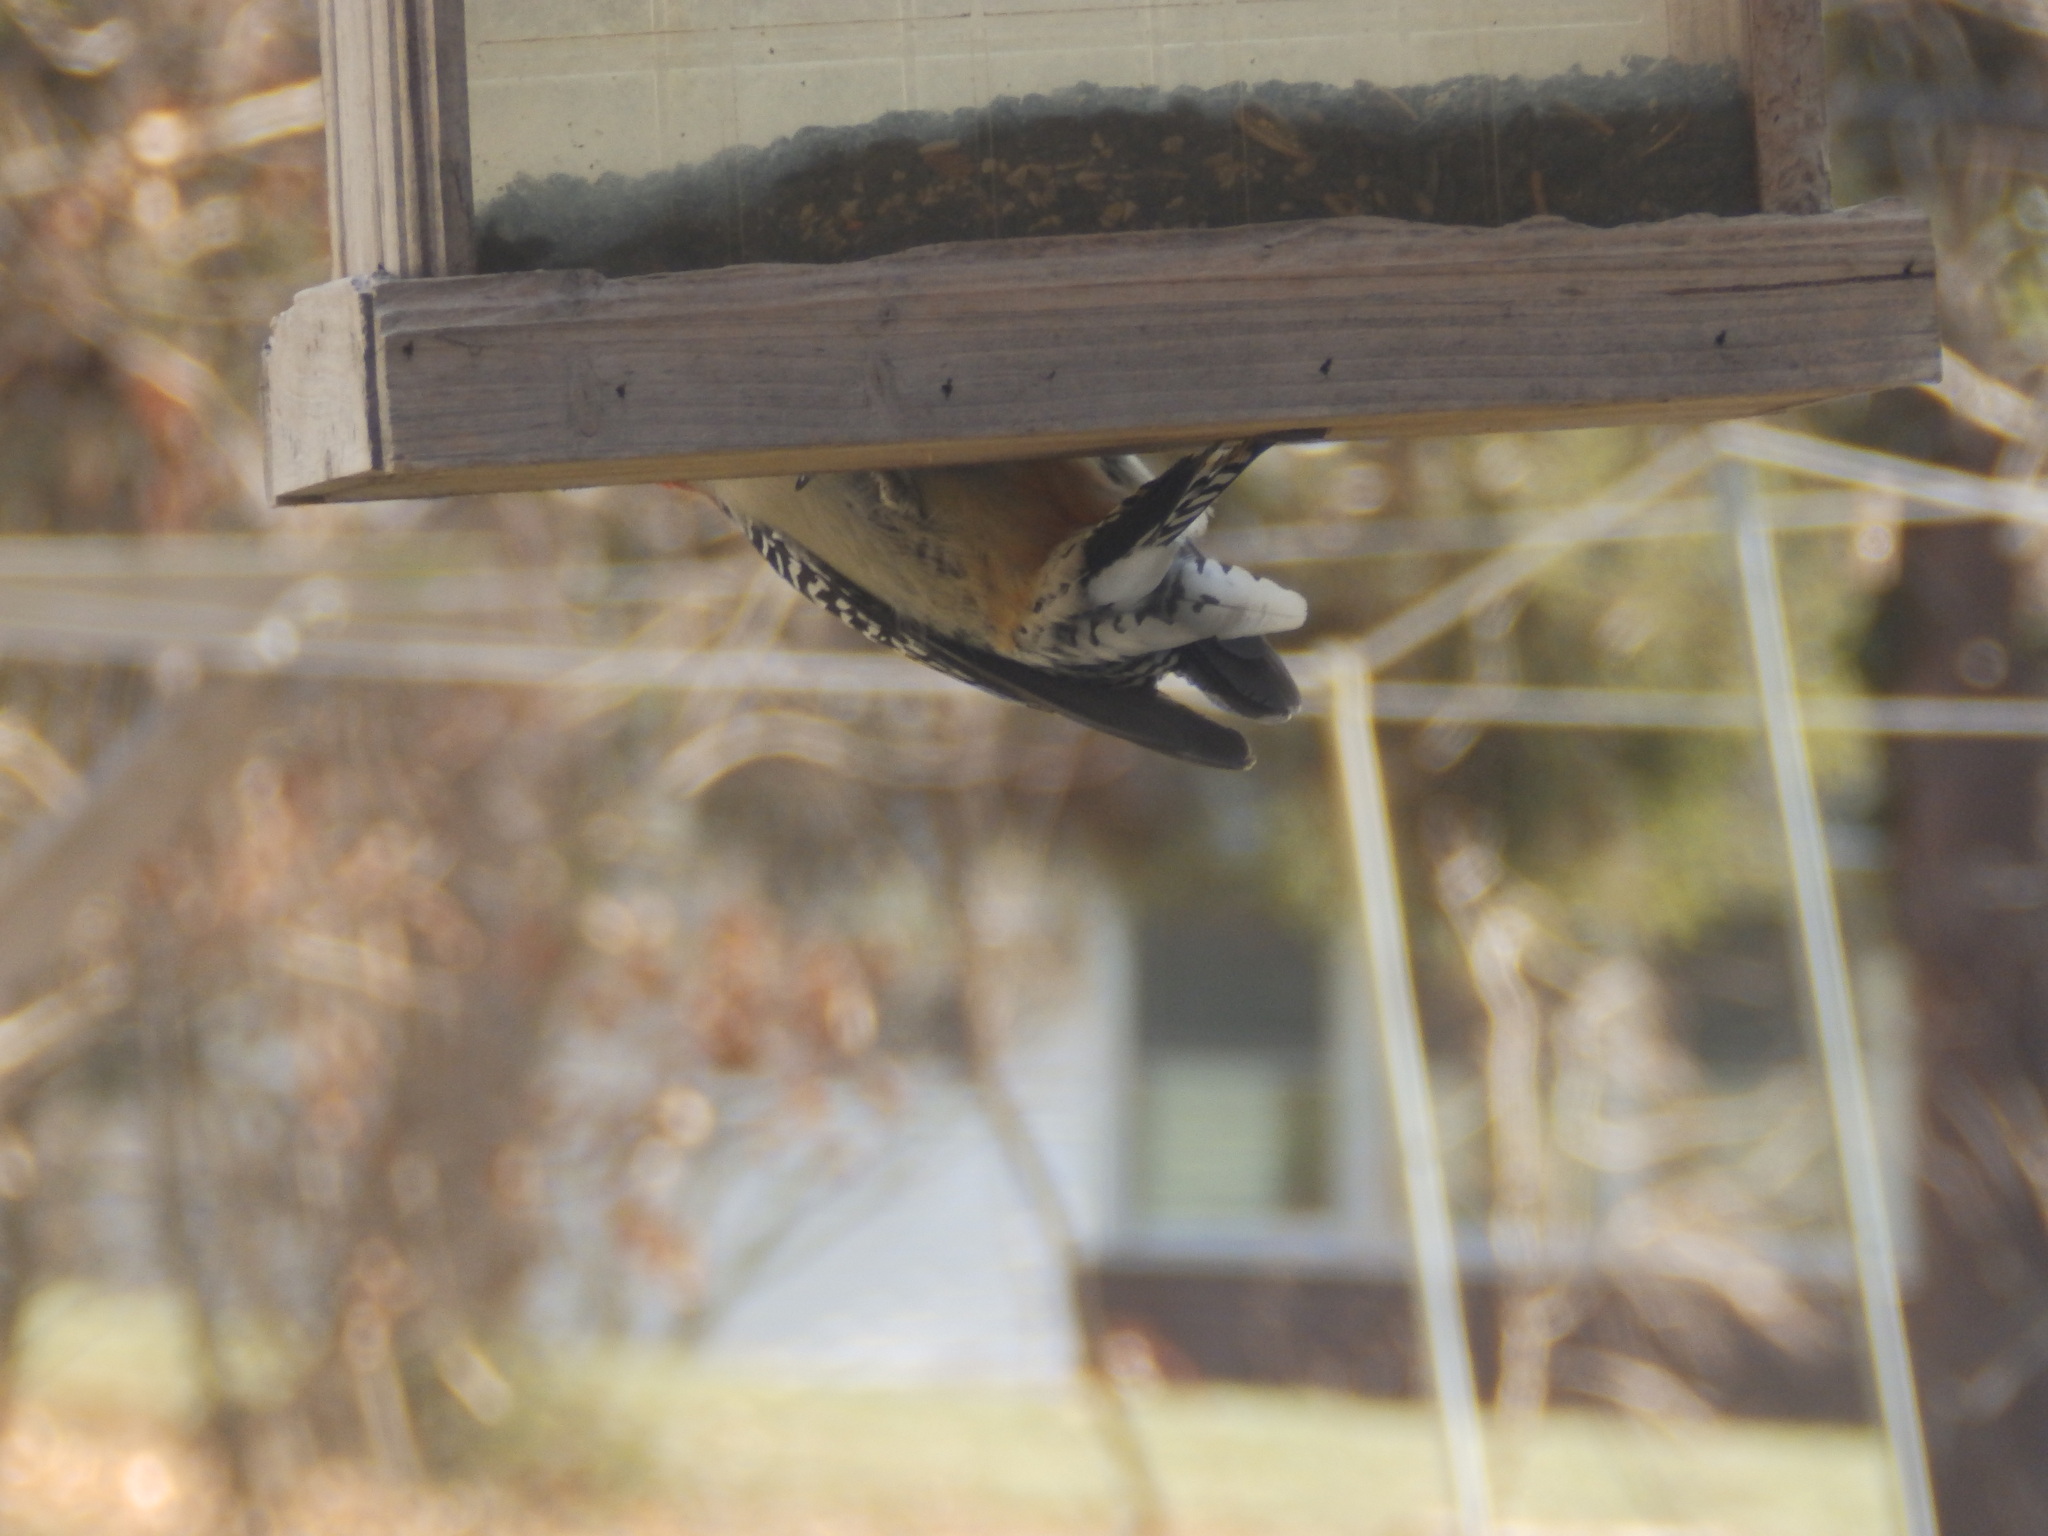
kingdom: Animalia
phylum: Chordata
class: Aves
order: Piciformes
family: Picidae
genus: Melanerpes
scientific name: Melanerpes carolinus
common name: Red-bellied woodpecker
